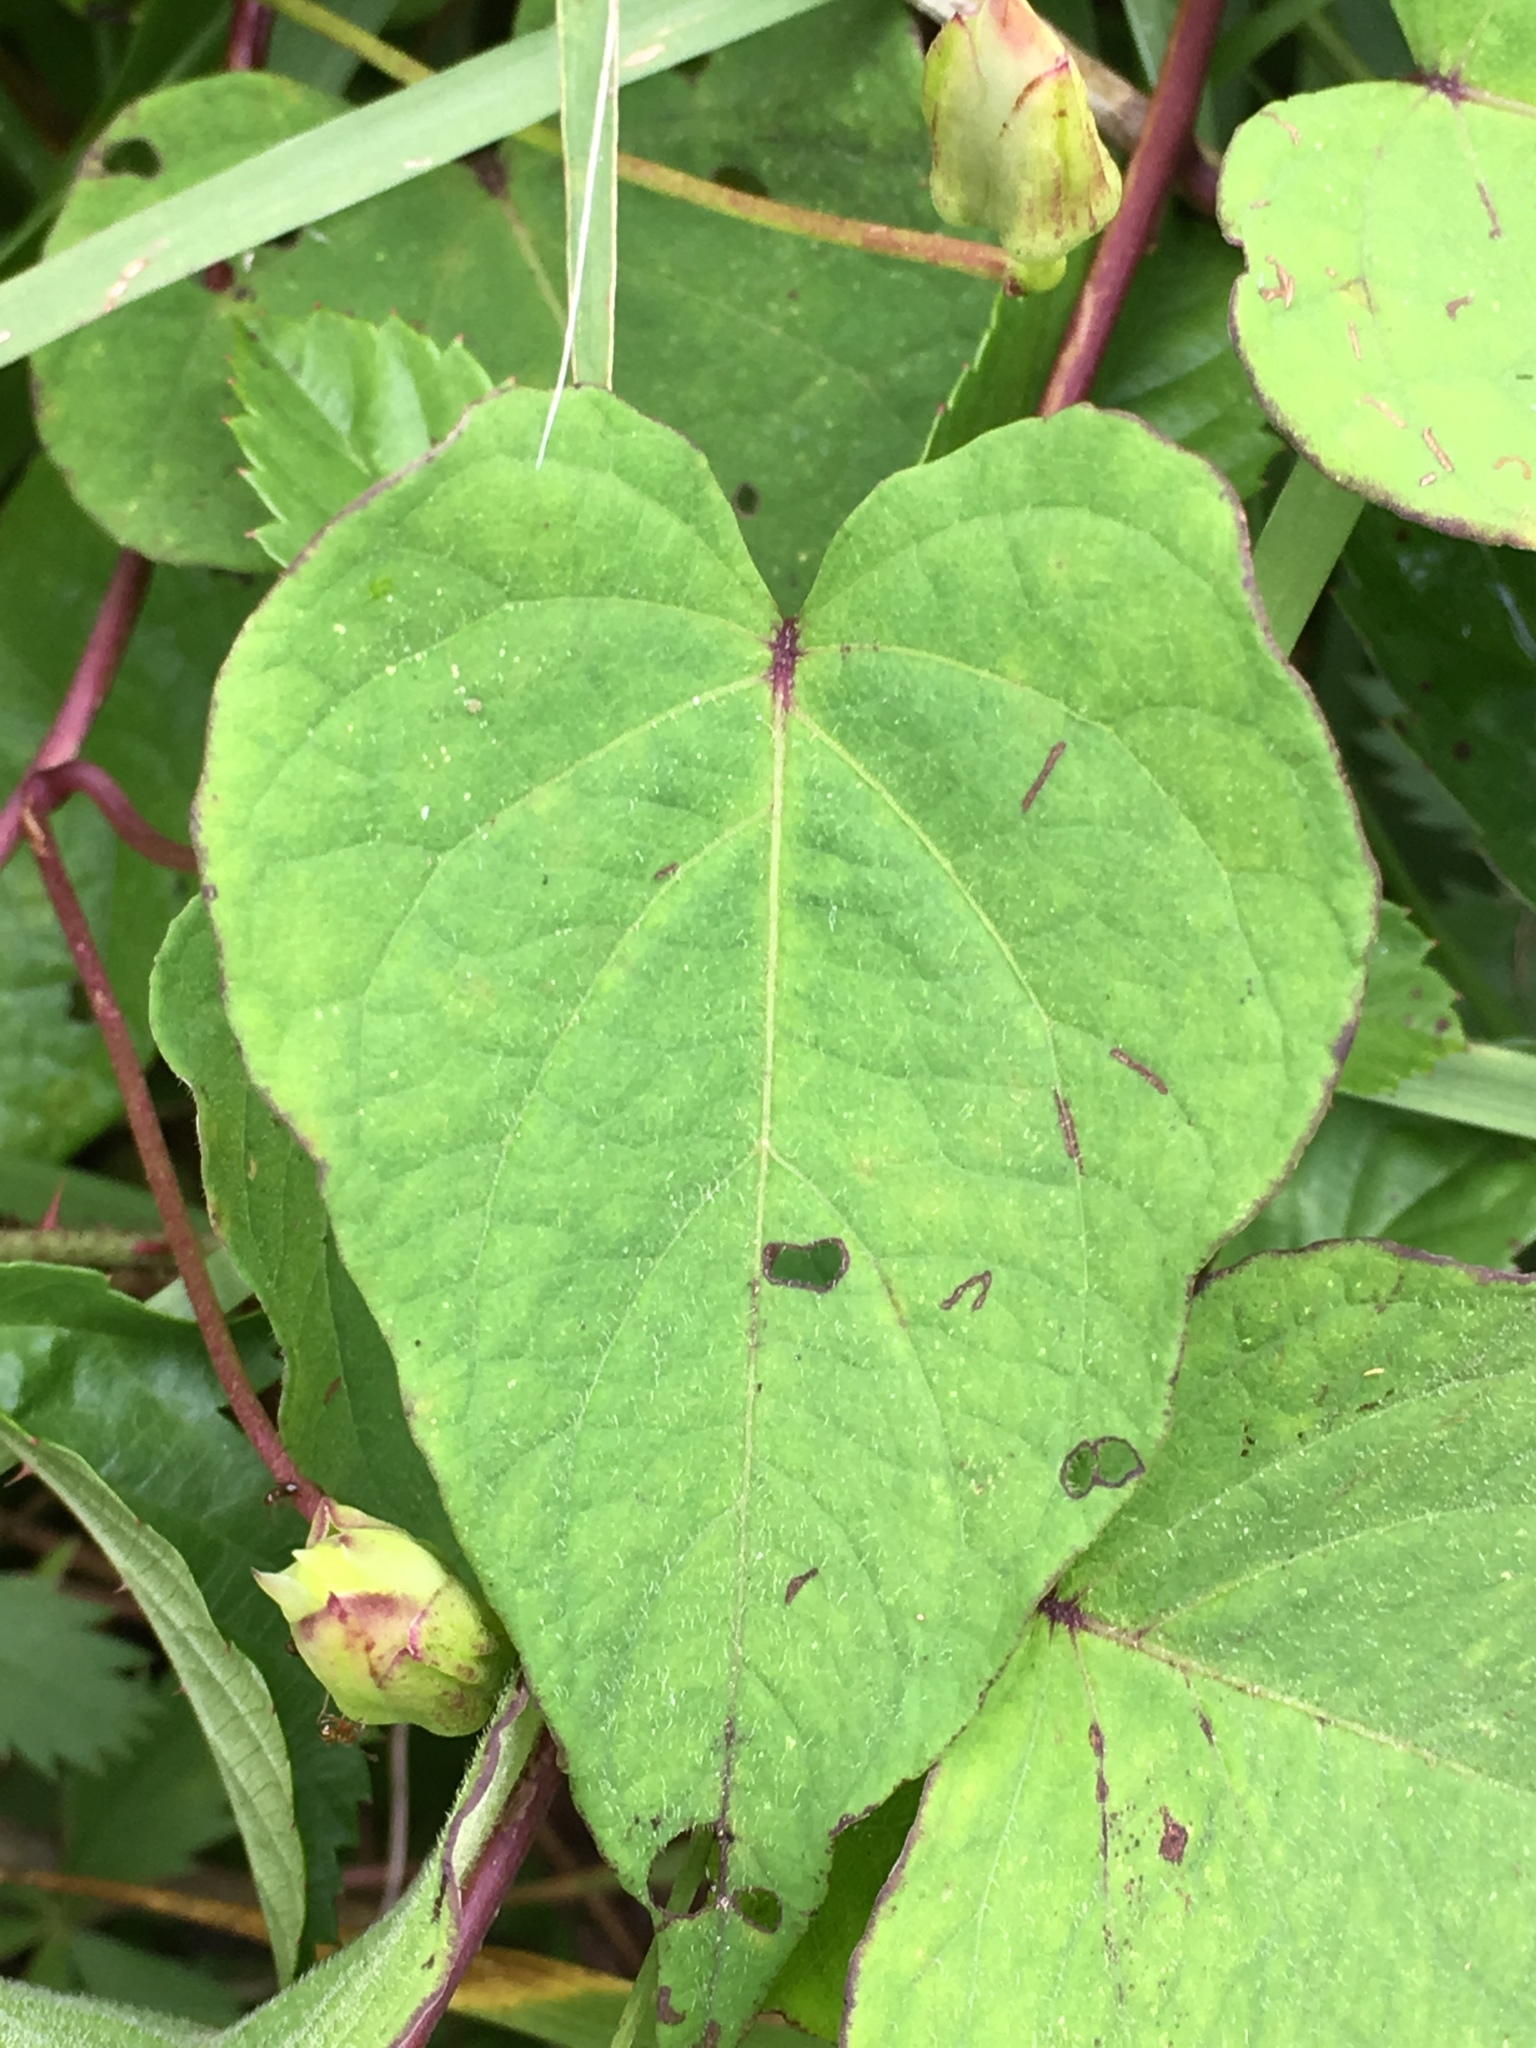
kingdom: Plantae
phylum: Tracheophyta
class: Magnoliopsida
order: Solanales
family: Convolvulaceae
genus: Ipomoea
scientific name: Ipomoea pandurata
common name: Man-of-the-earth
